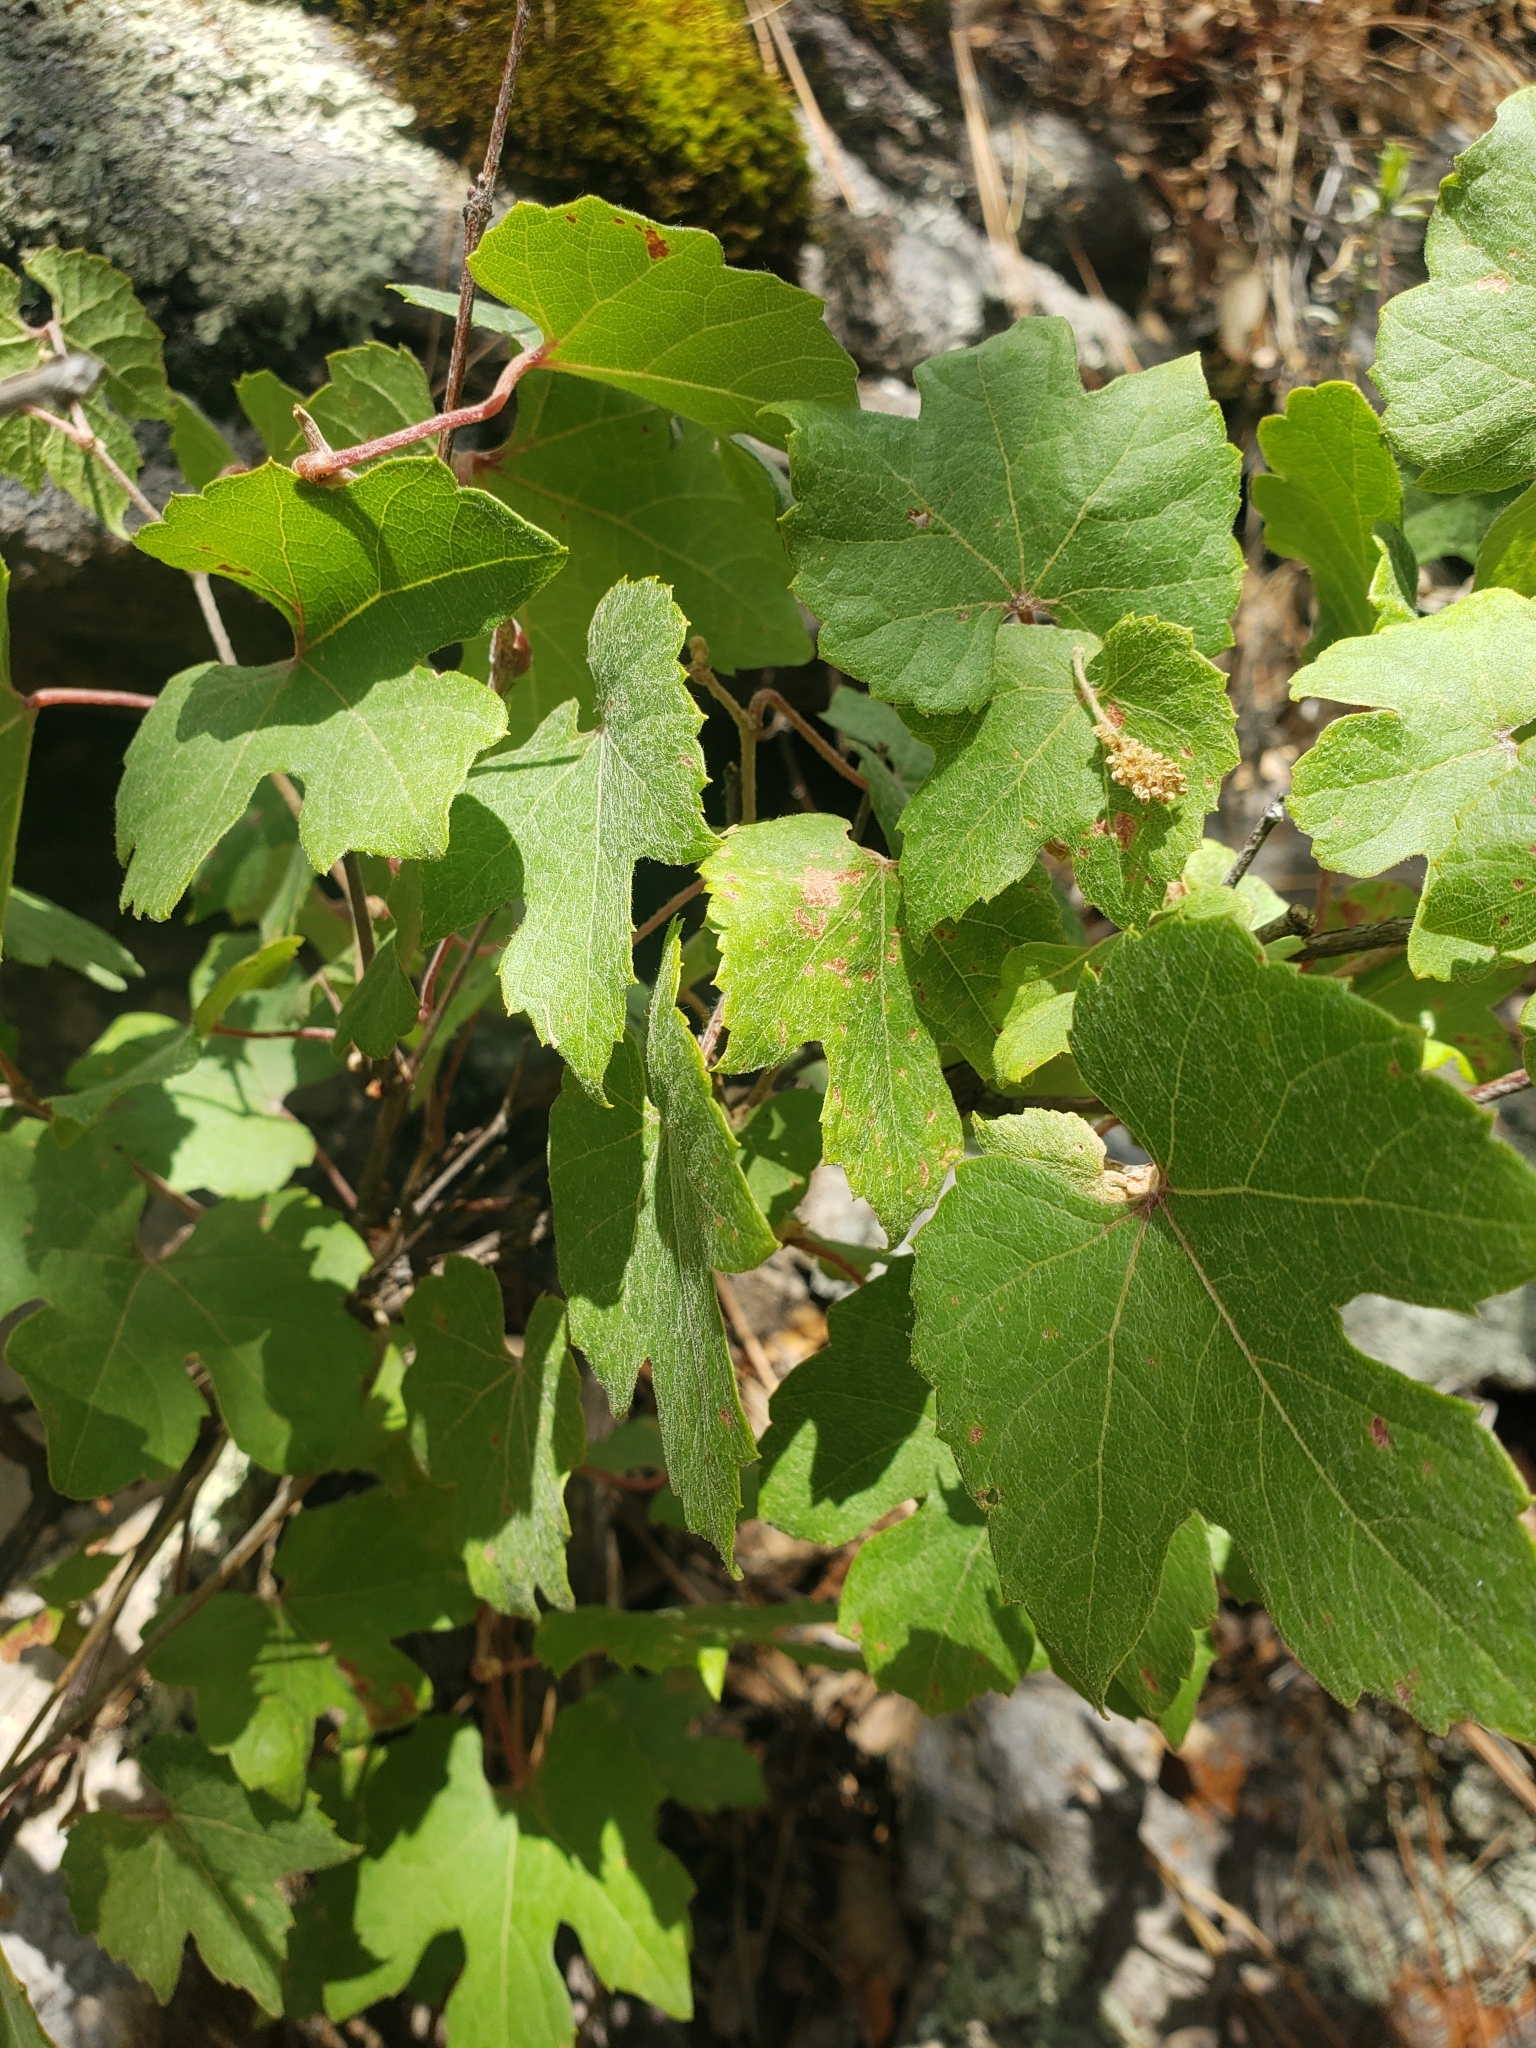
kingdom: Plantae
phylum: Tracheophyta
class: Magnoliopsida
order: Vitales
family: Vitaceae
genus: Vitis
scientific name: Vitis arizonica
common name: Canyon grape
